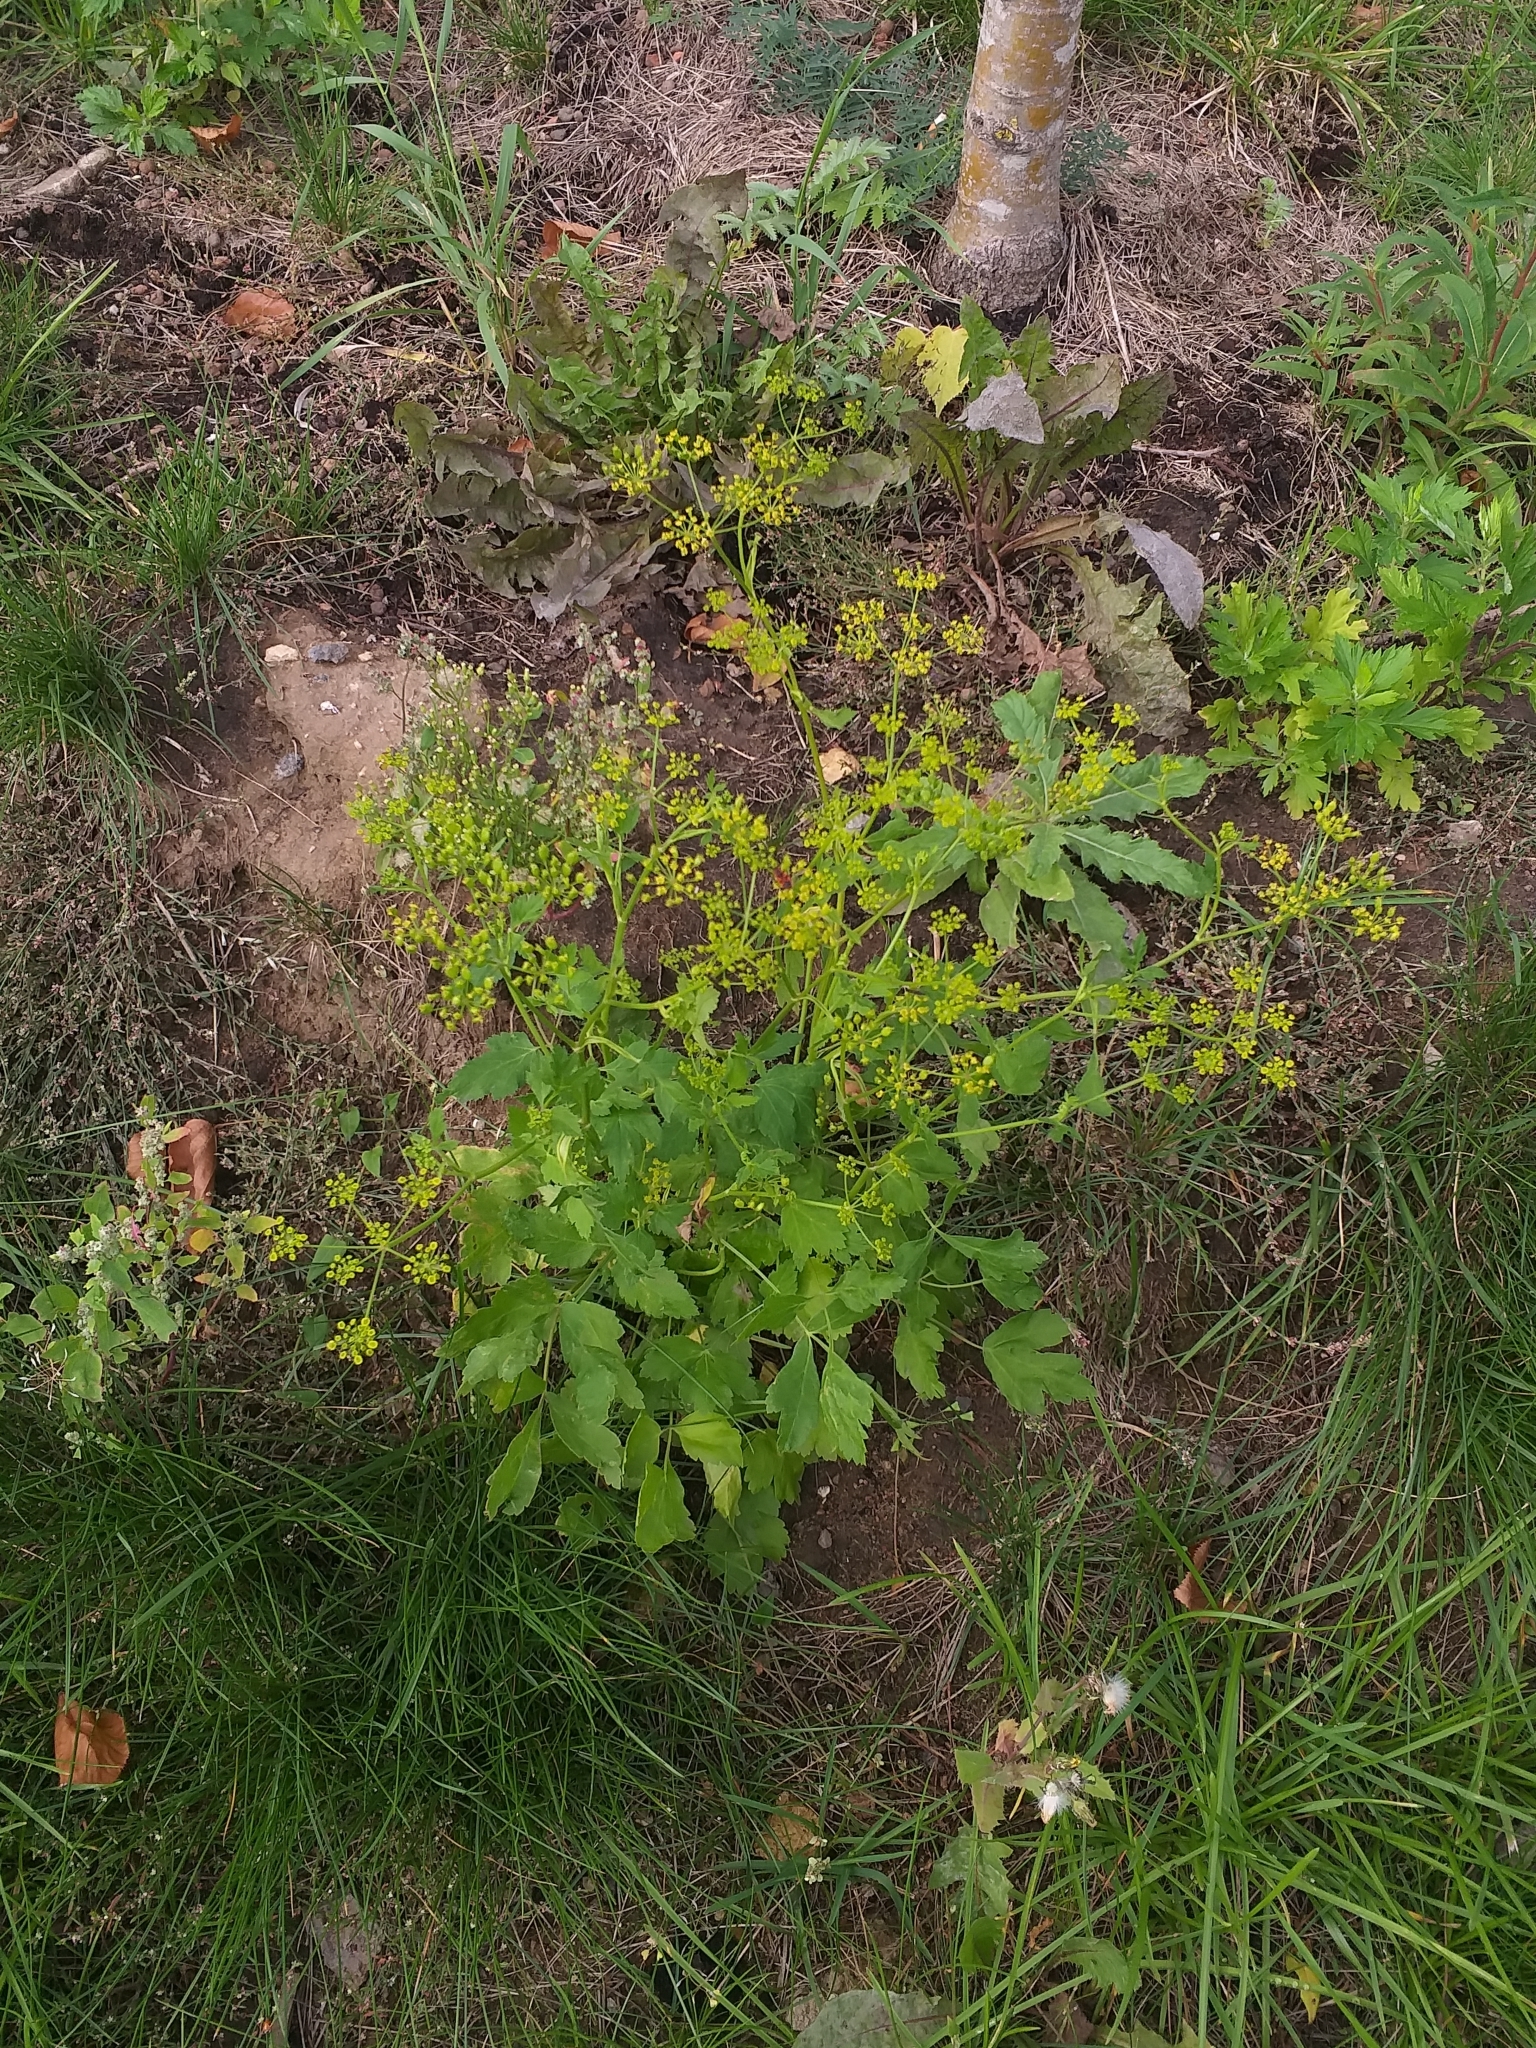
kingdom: Plantae
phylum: Tracheophyta
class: Magnoliopsida
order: Apiales
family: Apiaceae
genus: Pastinaca
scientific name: Pastinaca sativa
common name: Wild parsnip
